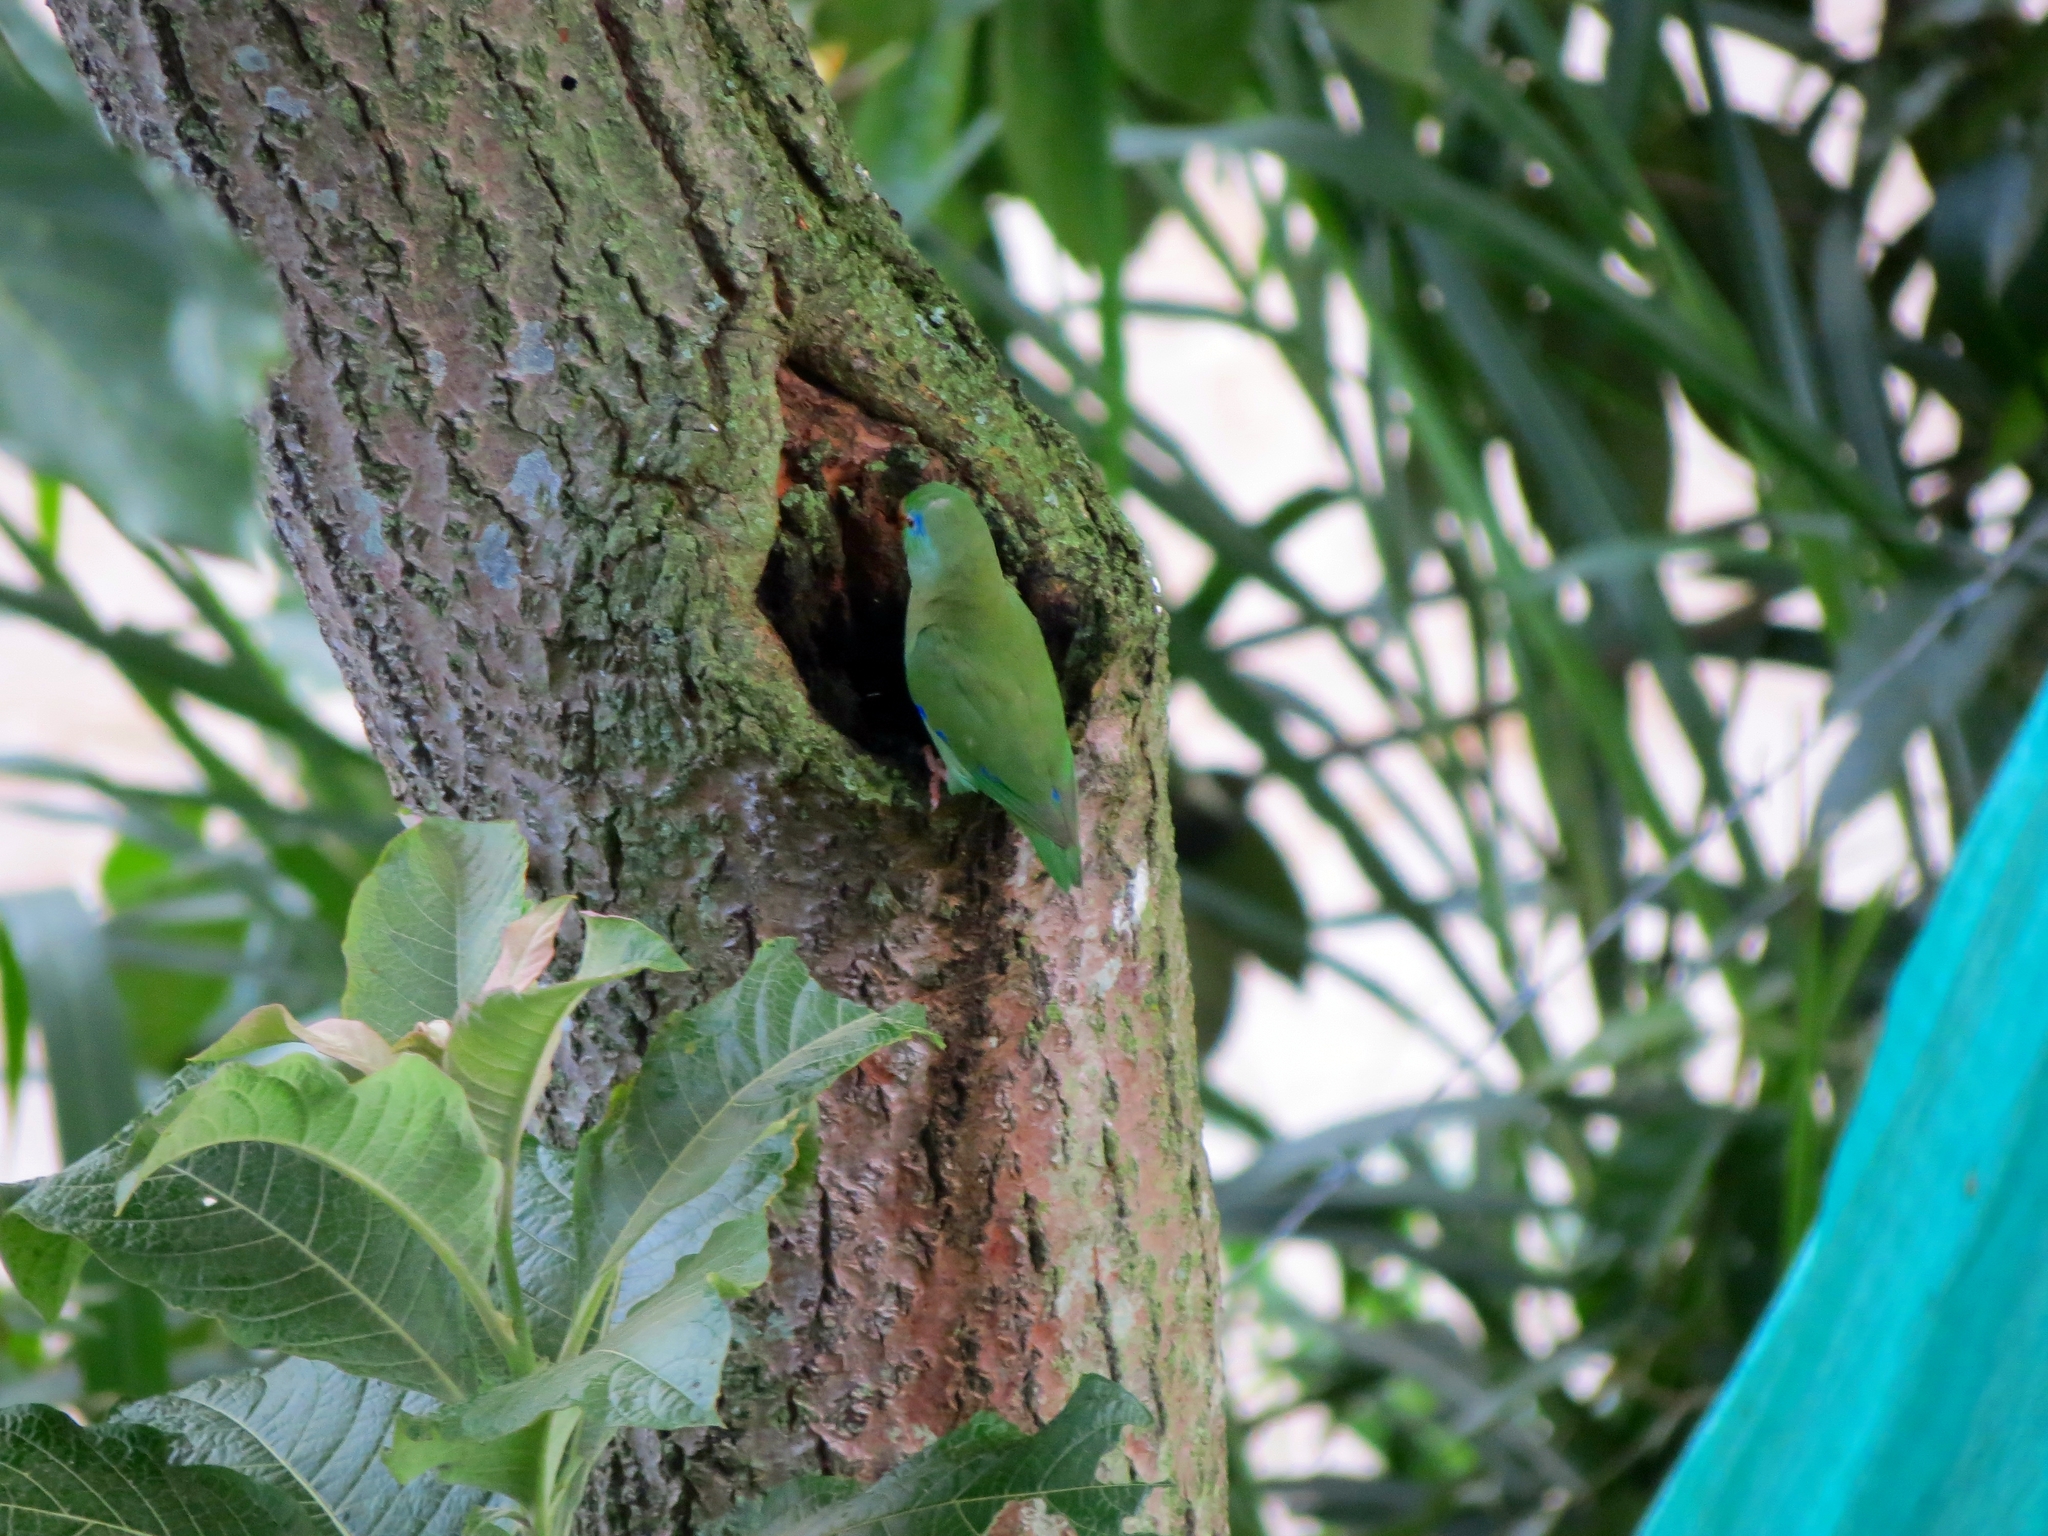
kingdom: Animalia
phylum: Chordata
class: Aves
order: Psittaciformes
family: Psittacidae
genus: Forpus
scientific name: Forpus conspicillatus
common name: Spectacled parrotlet
